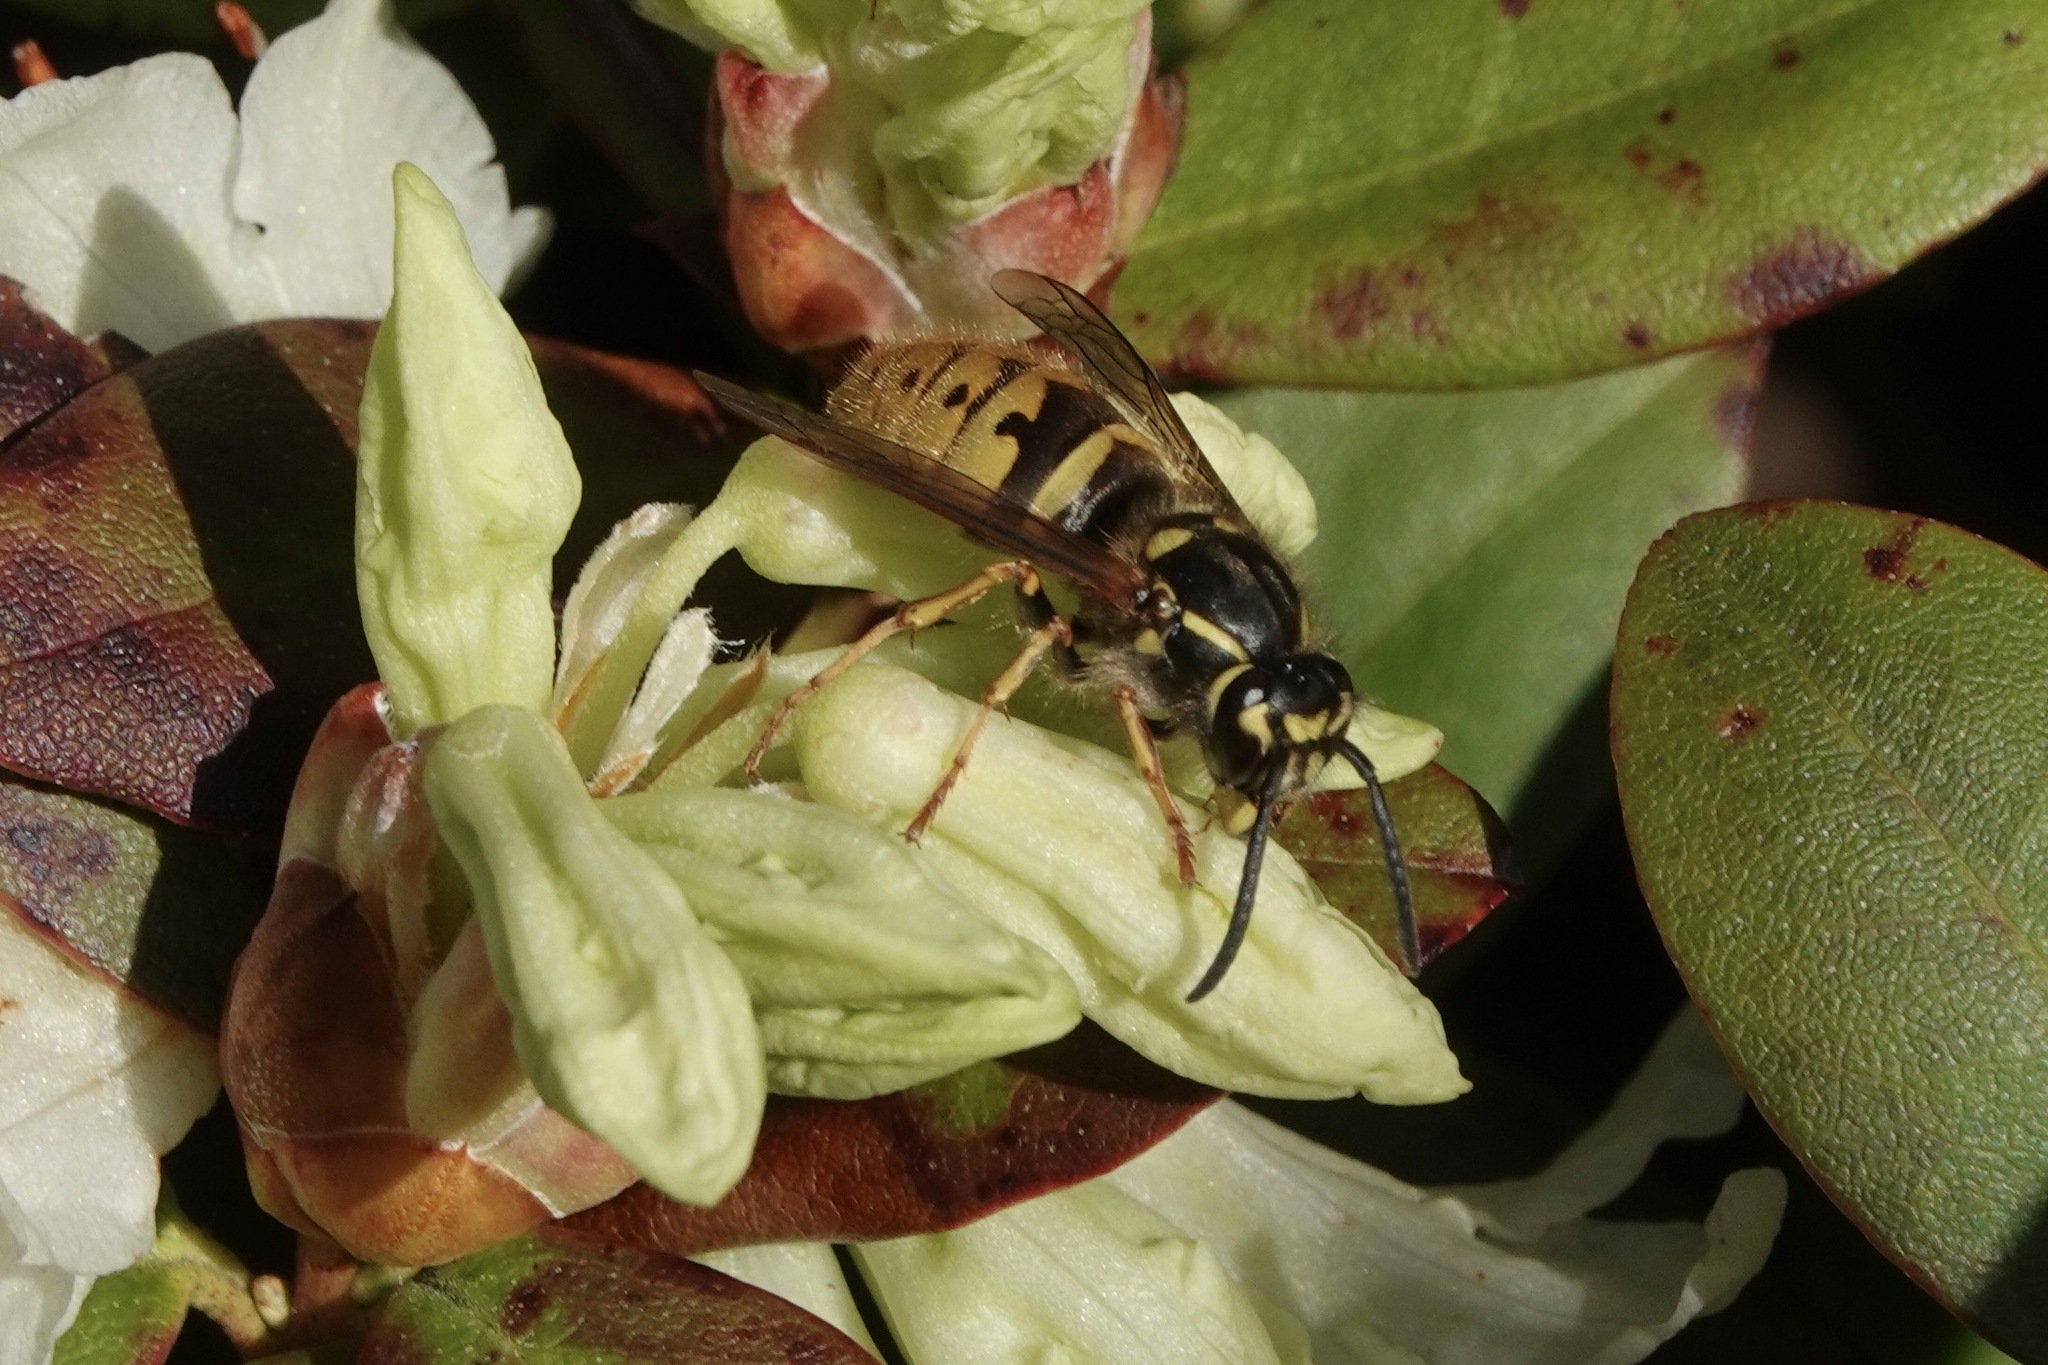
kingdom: Animalia
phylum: Arthropoda
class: Insecta
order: Hymenoptera
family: Vespidae
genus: Vespula
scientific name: Vespula vulgaris
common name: Common wasp
